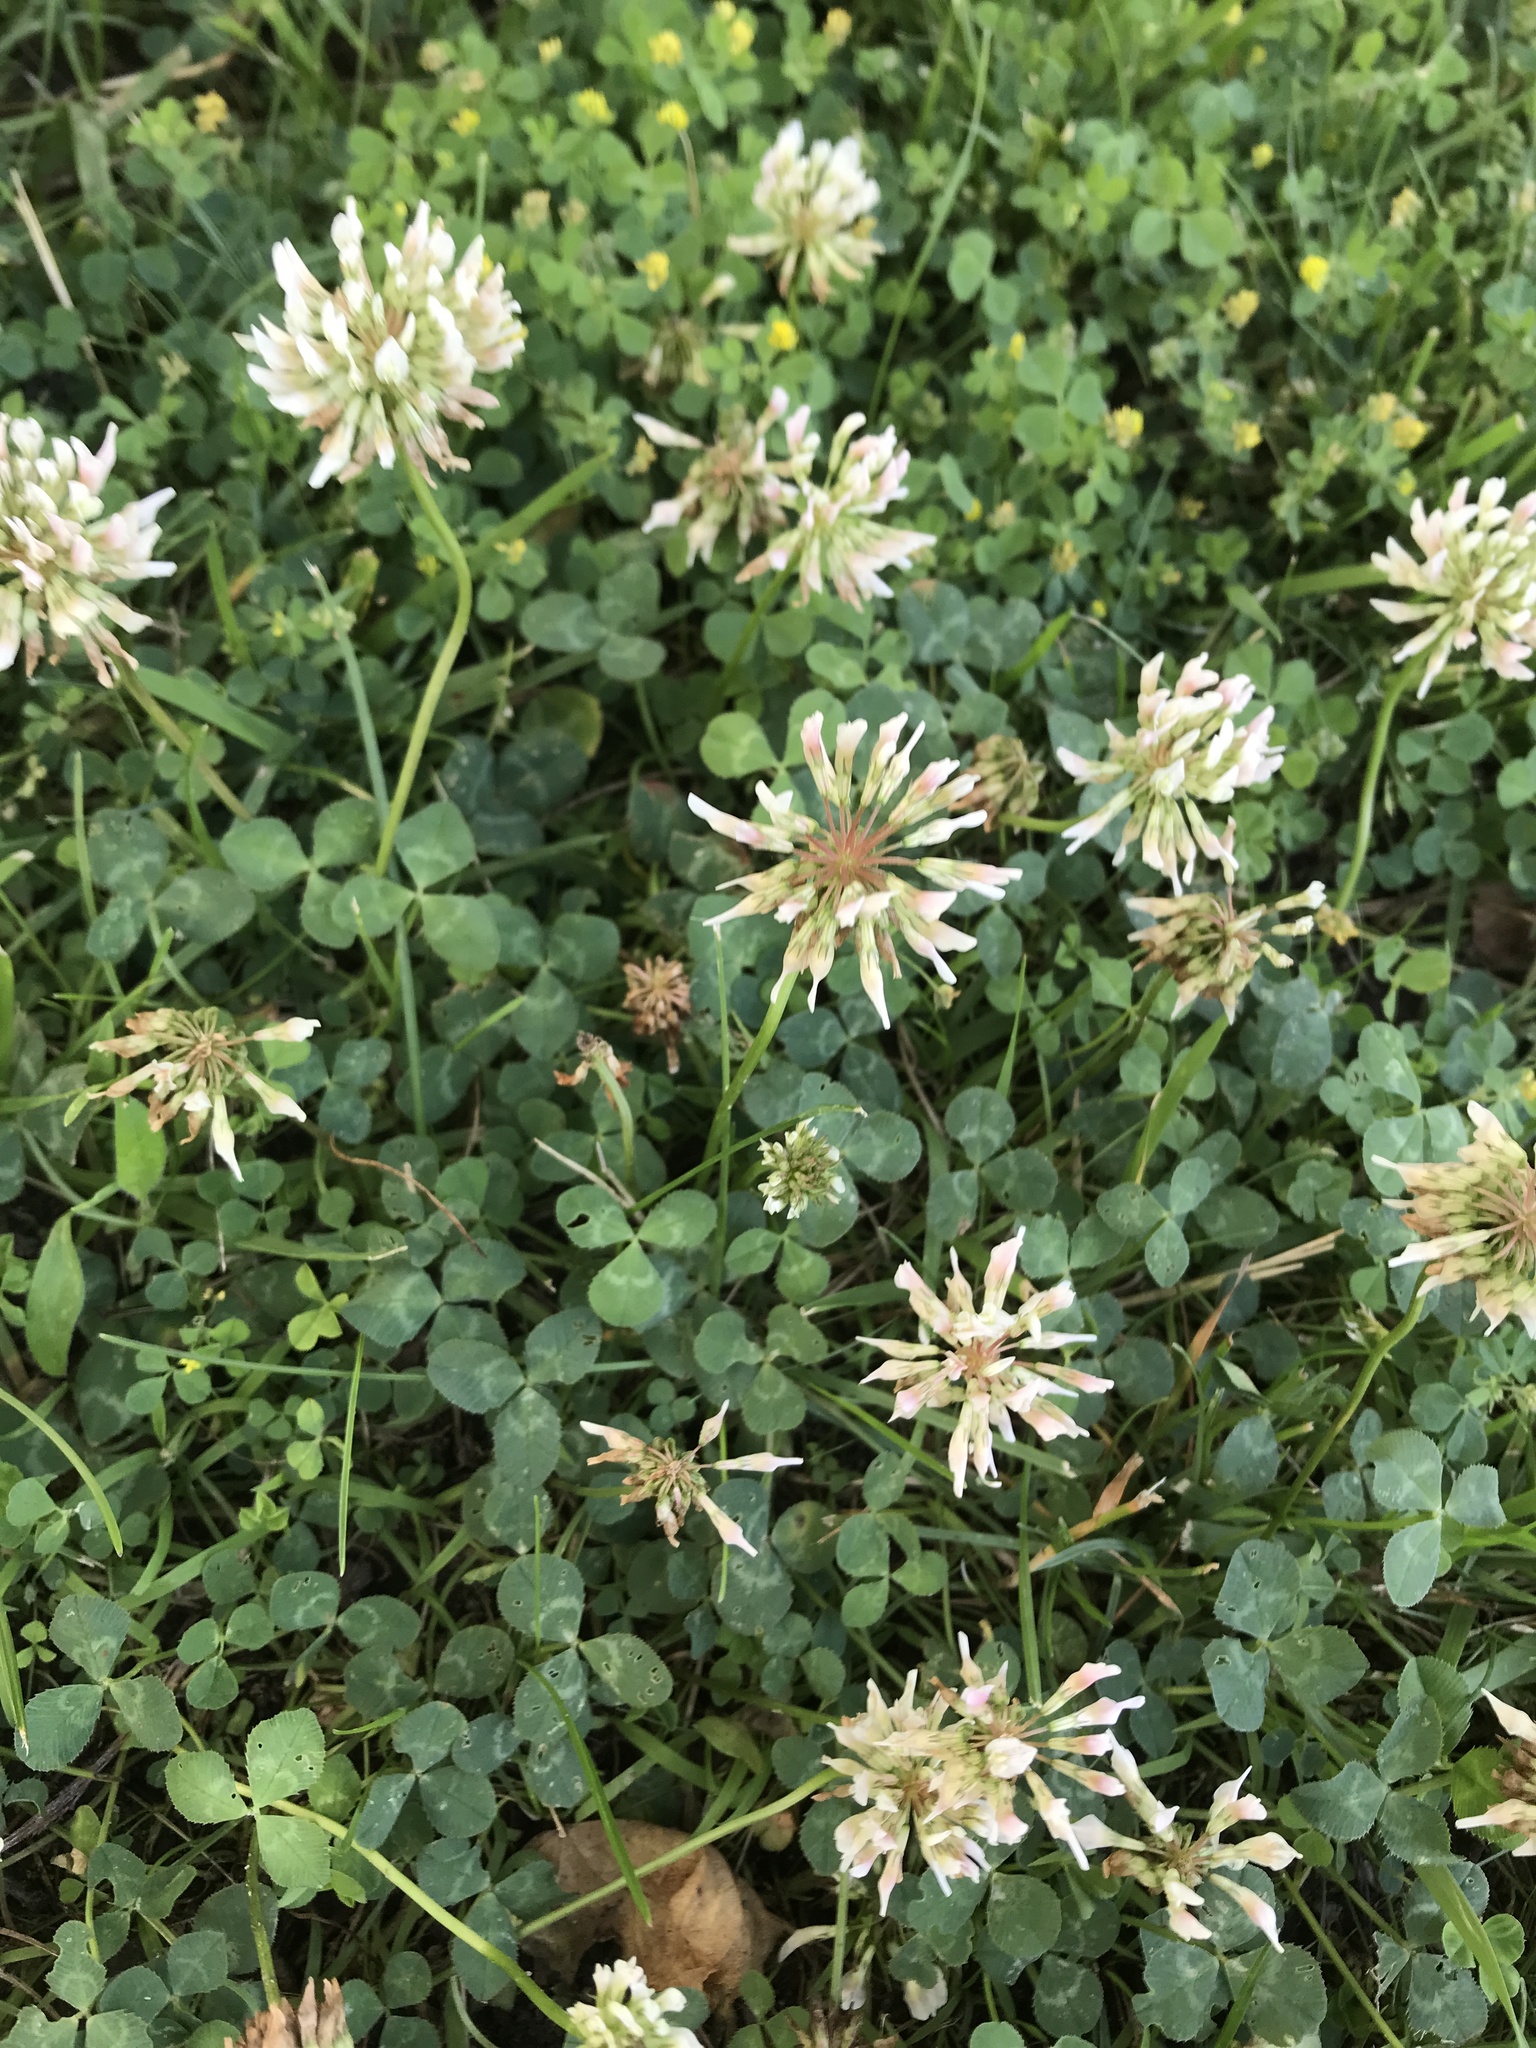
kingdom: Plantae
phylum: Tracheophyta
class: Magnoliopsida
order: Fabales
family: Fabaceae
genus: Trifolium
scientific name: Trifolium repens
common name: White clover
